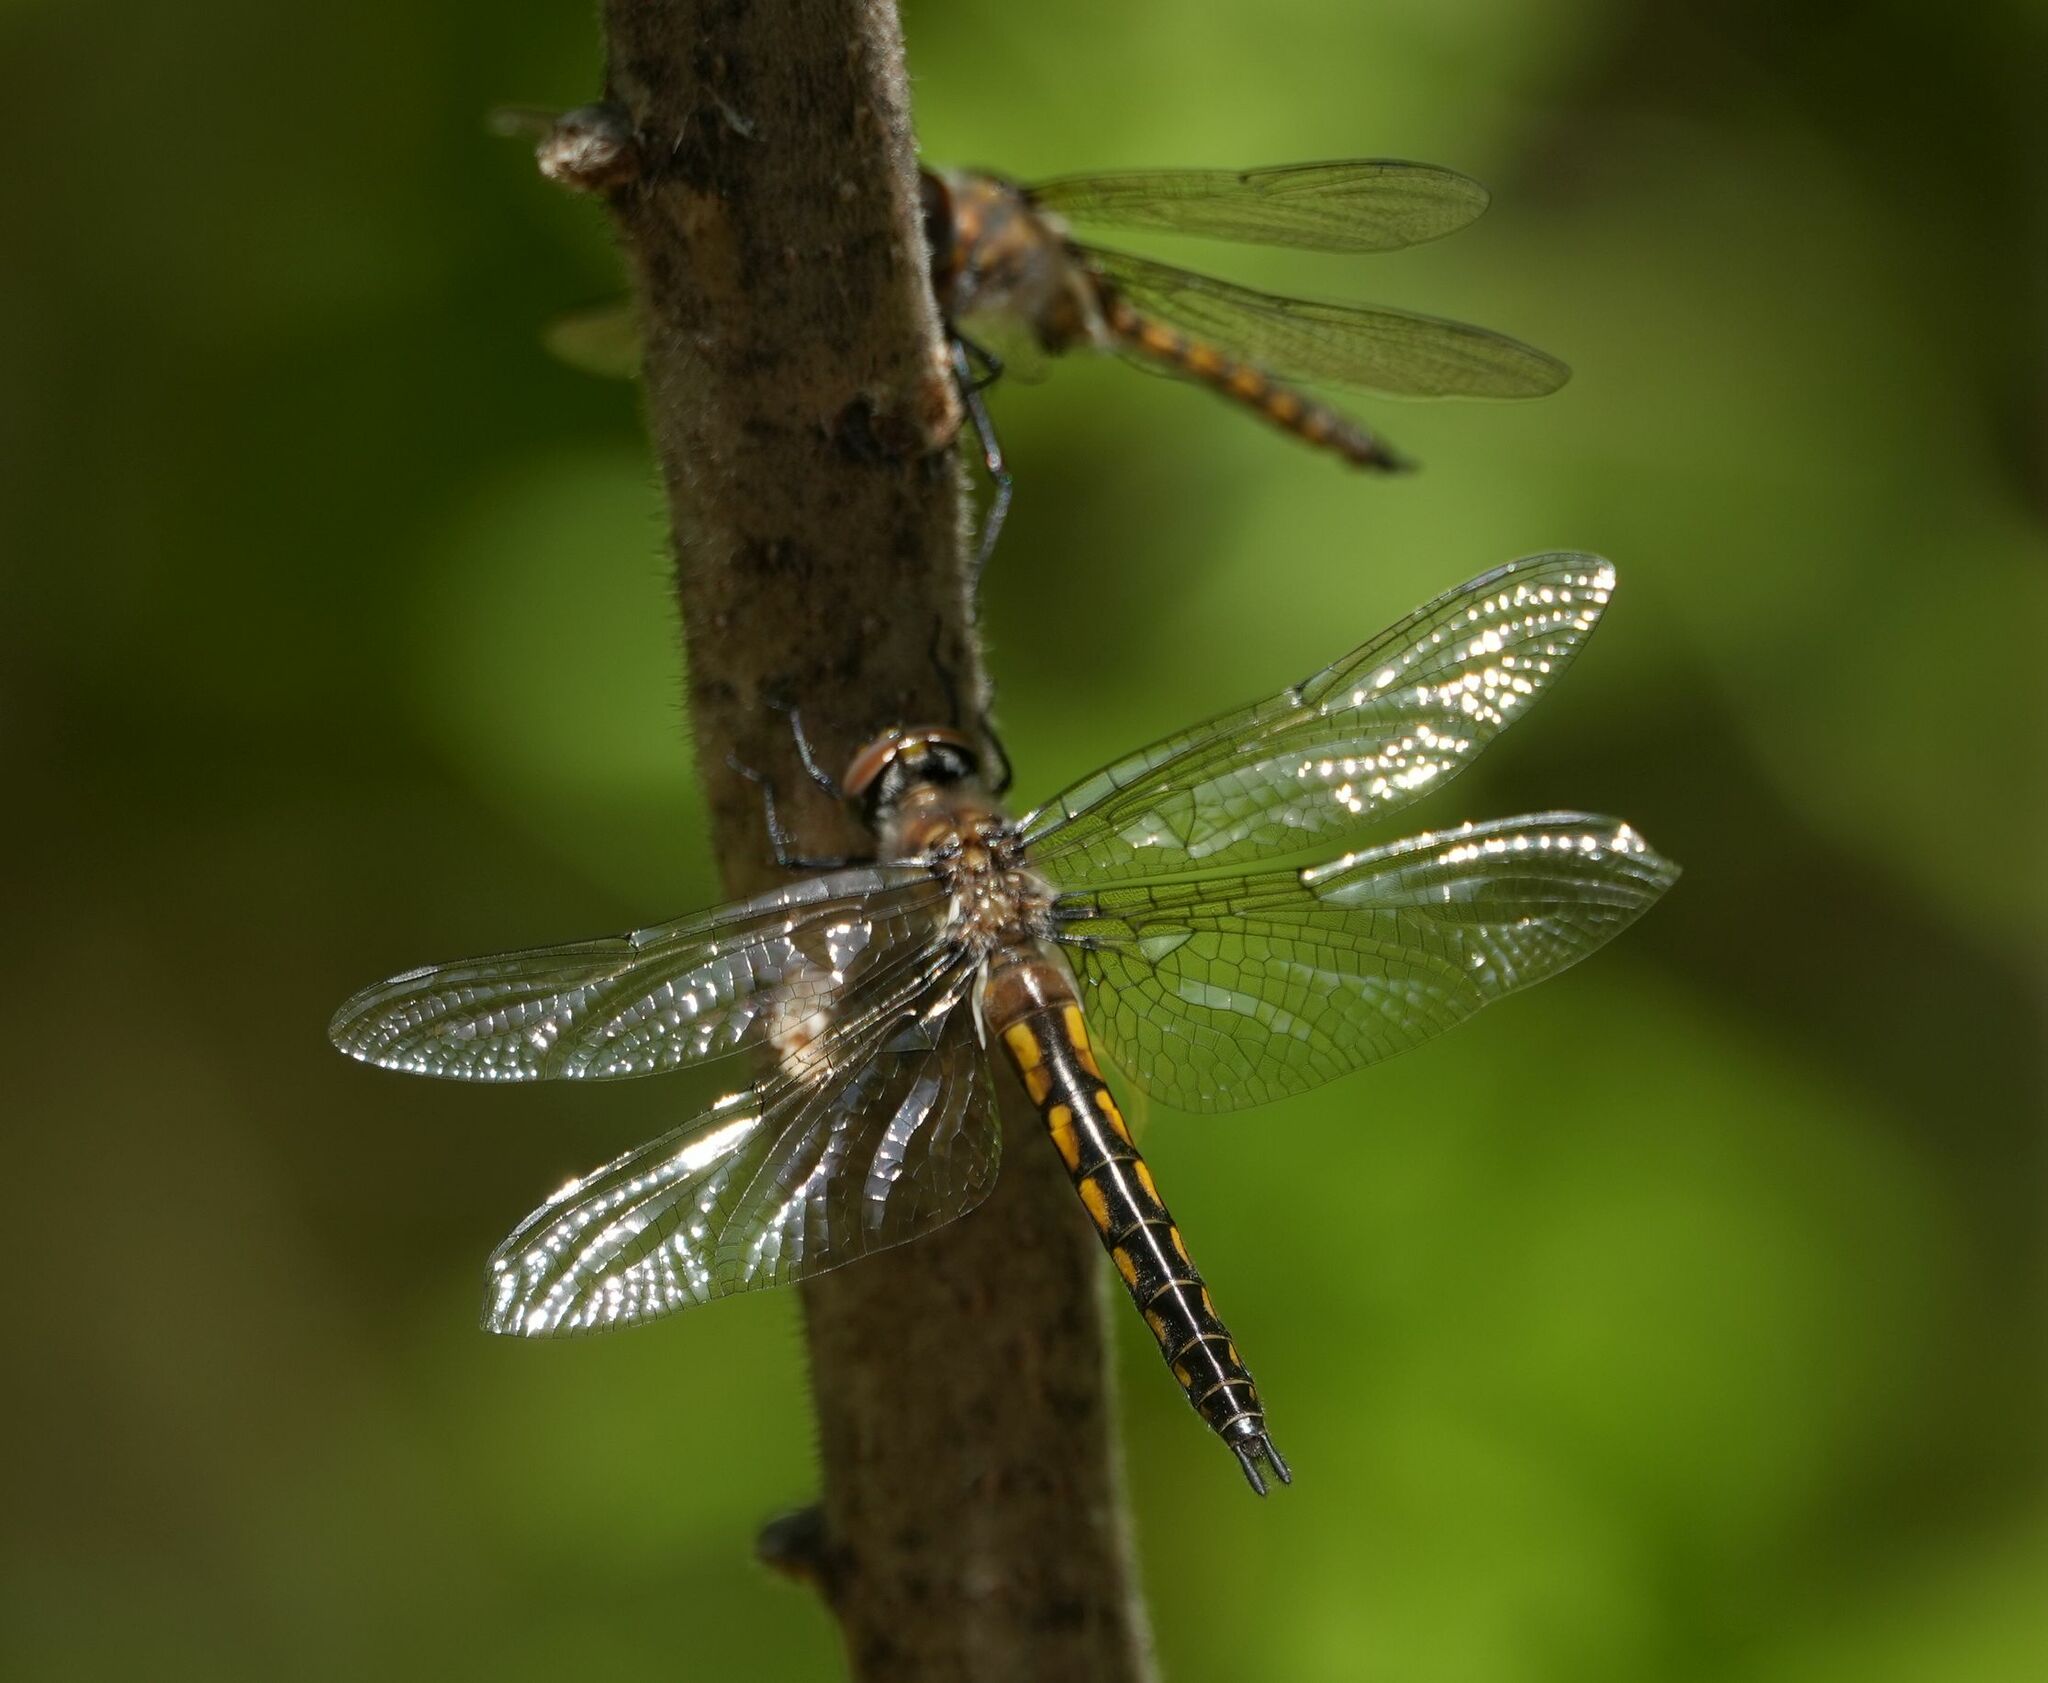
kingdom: Animalia
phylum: Arthropoda
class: Insecta
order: Odonata
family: Corduliidae
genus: Epitheca
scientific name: Epitheca spinigera
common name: Spiny baskettail
